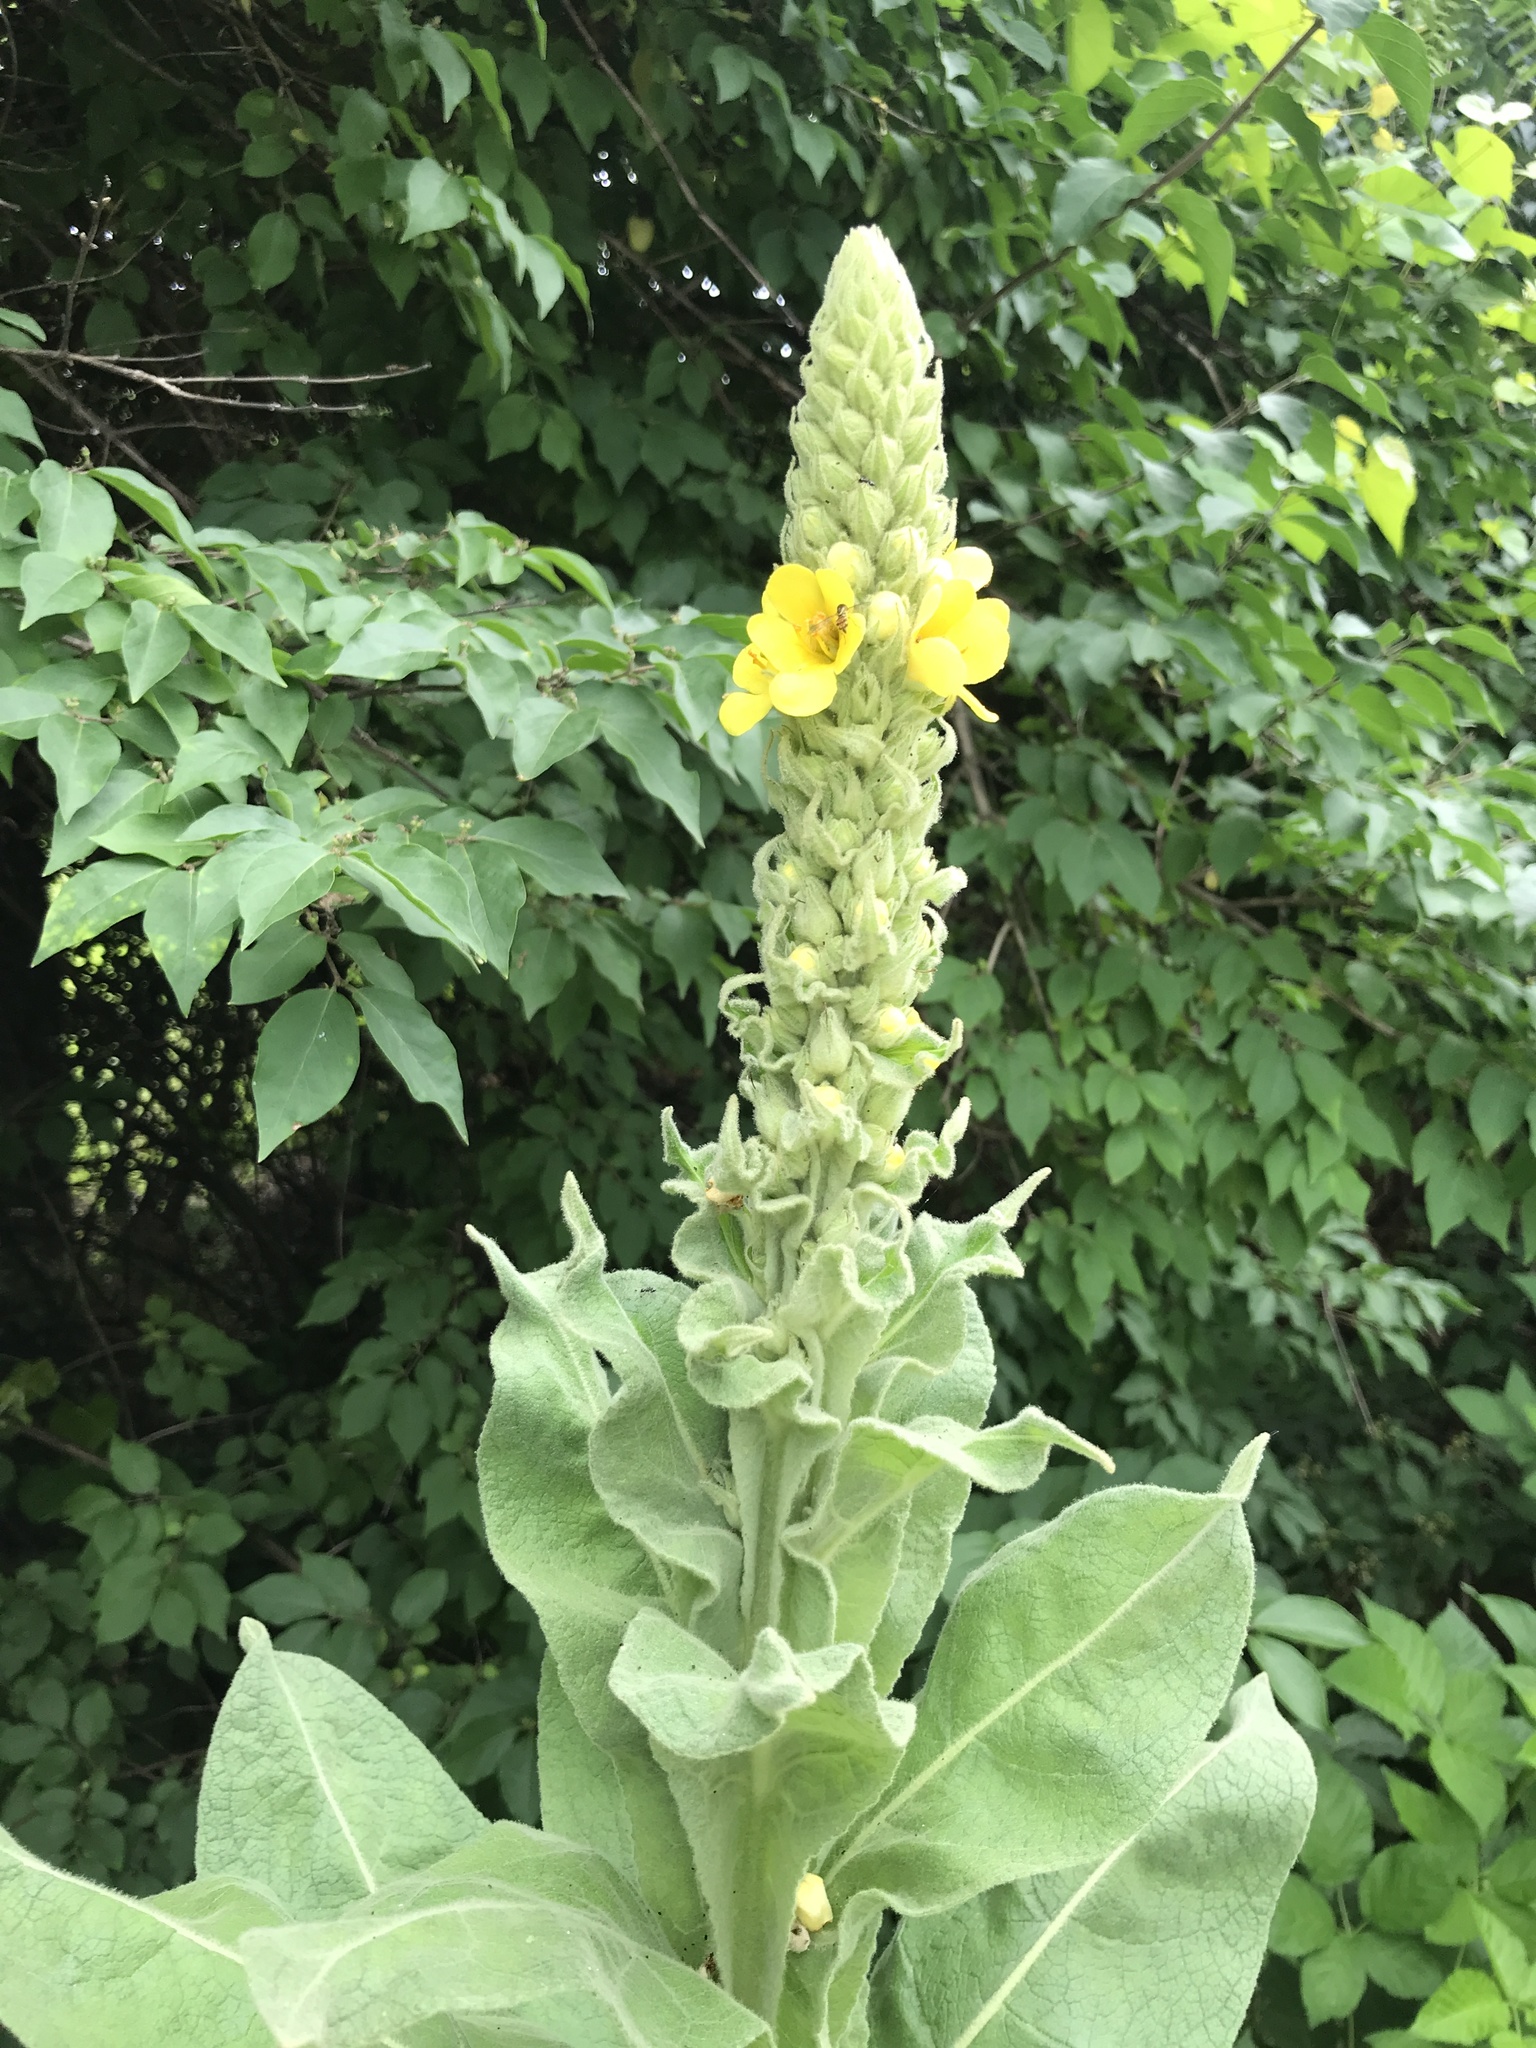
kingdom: Plantae
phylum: Tracheophyta
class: Magnoliopsida
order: Lamiales
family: Scrophulariaceae
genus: Verbascum
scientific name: Verbascum thapsus
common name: Common mullein
